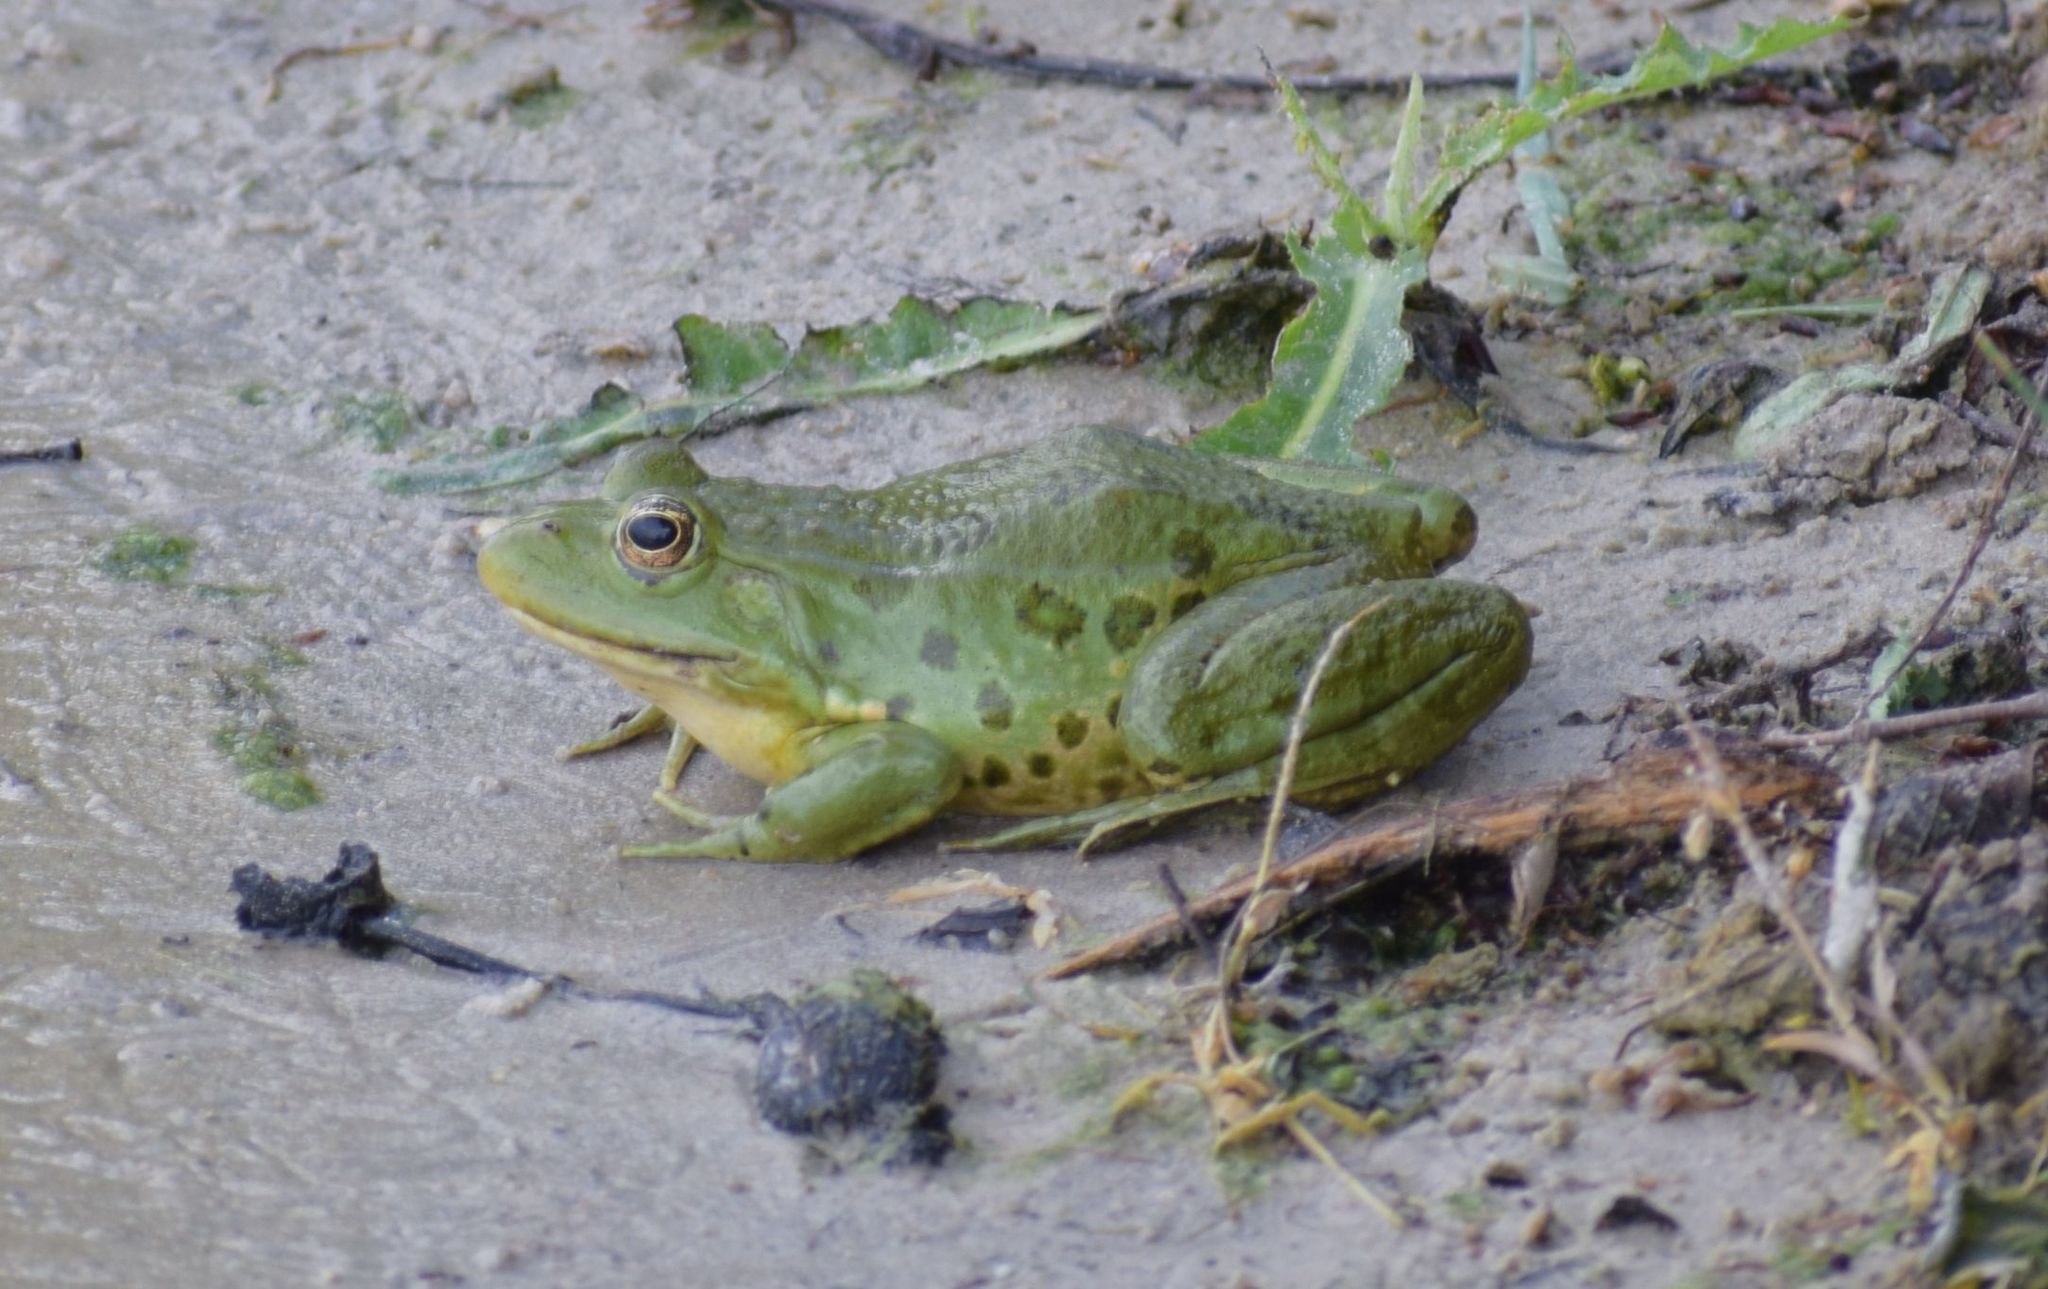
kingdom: Animalia
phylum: Chordata
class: Amphibia
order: Anura
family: Ranidae
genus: Pelophylax
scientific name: Pelophylax
